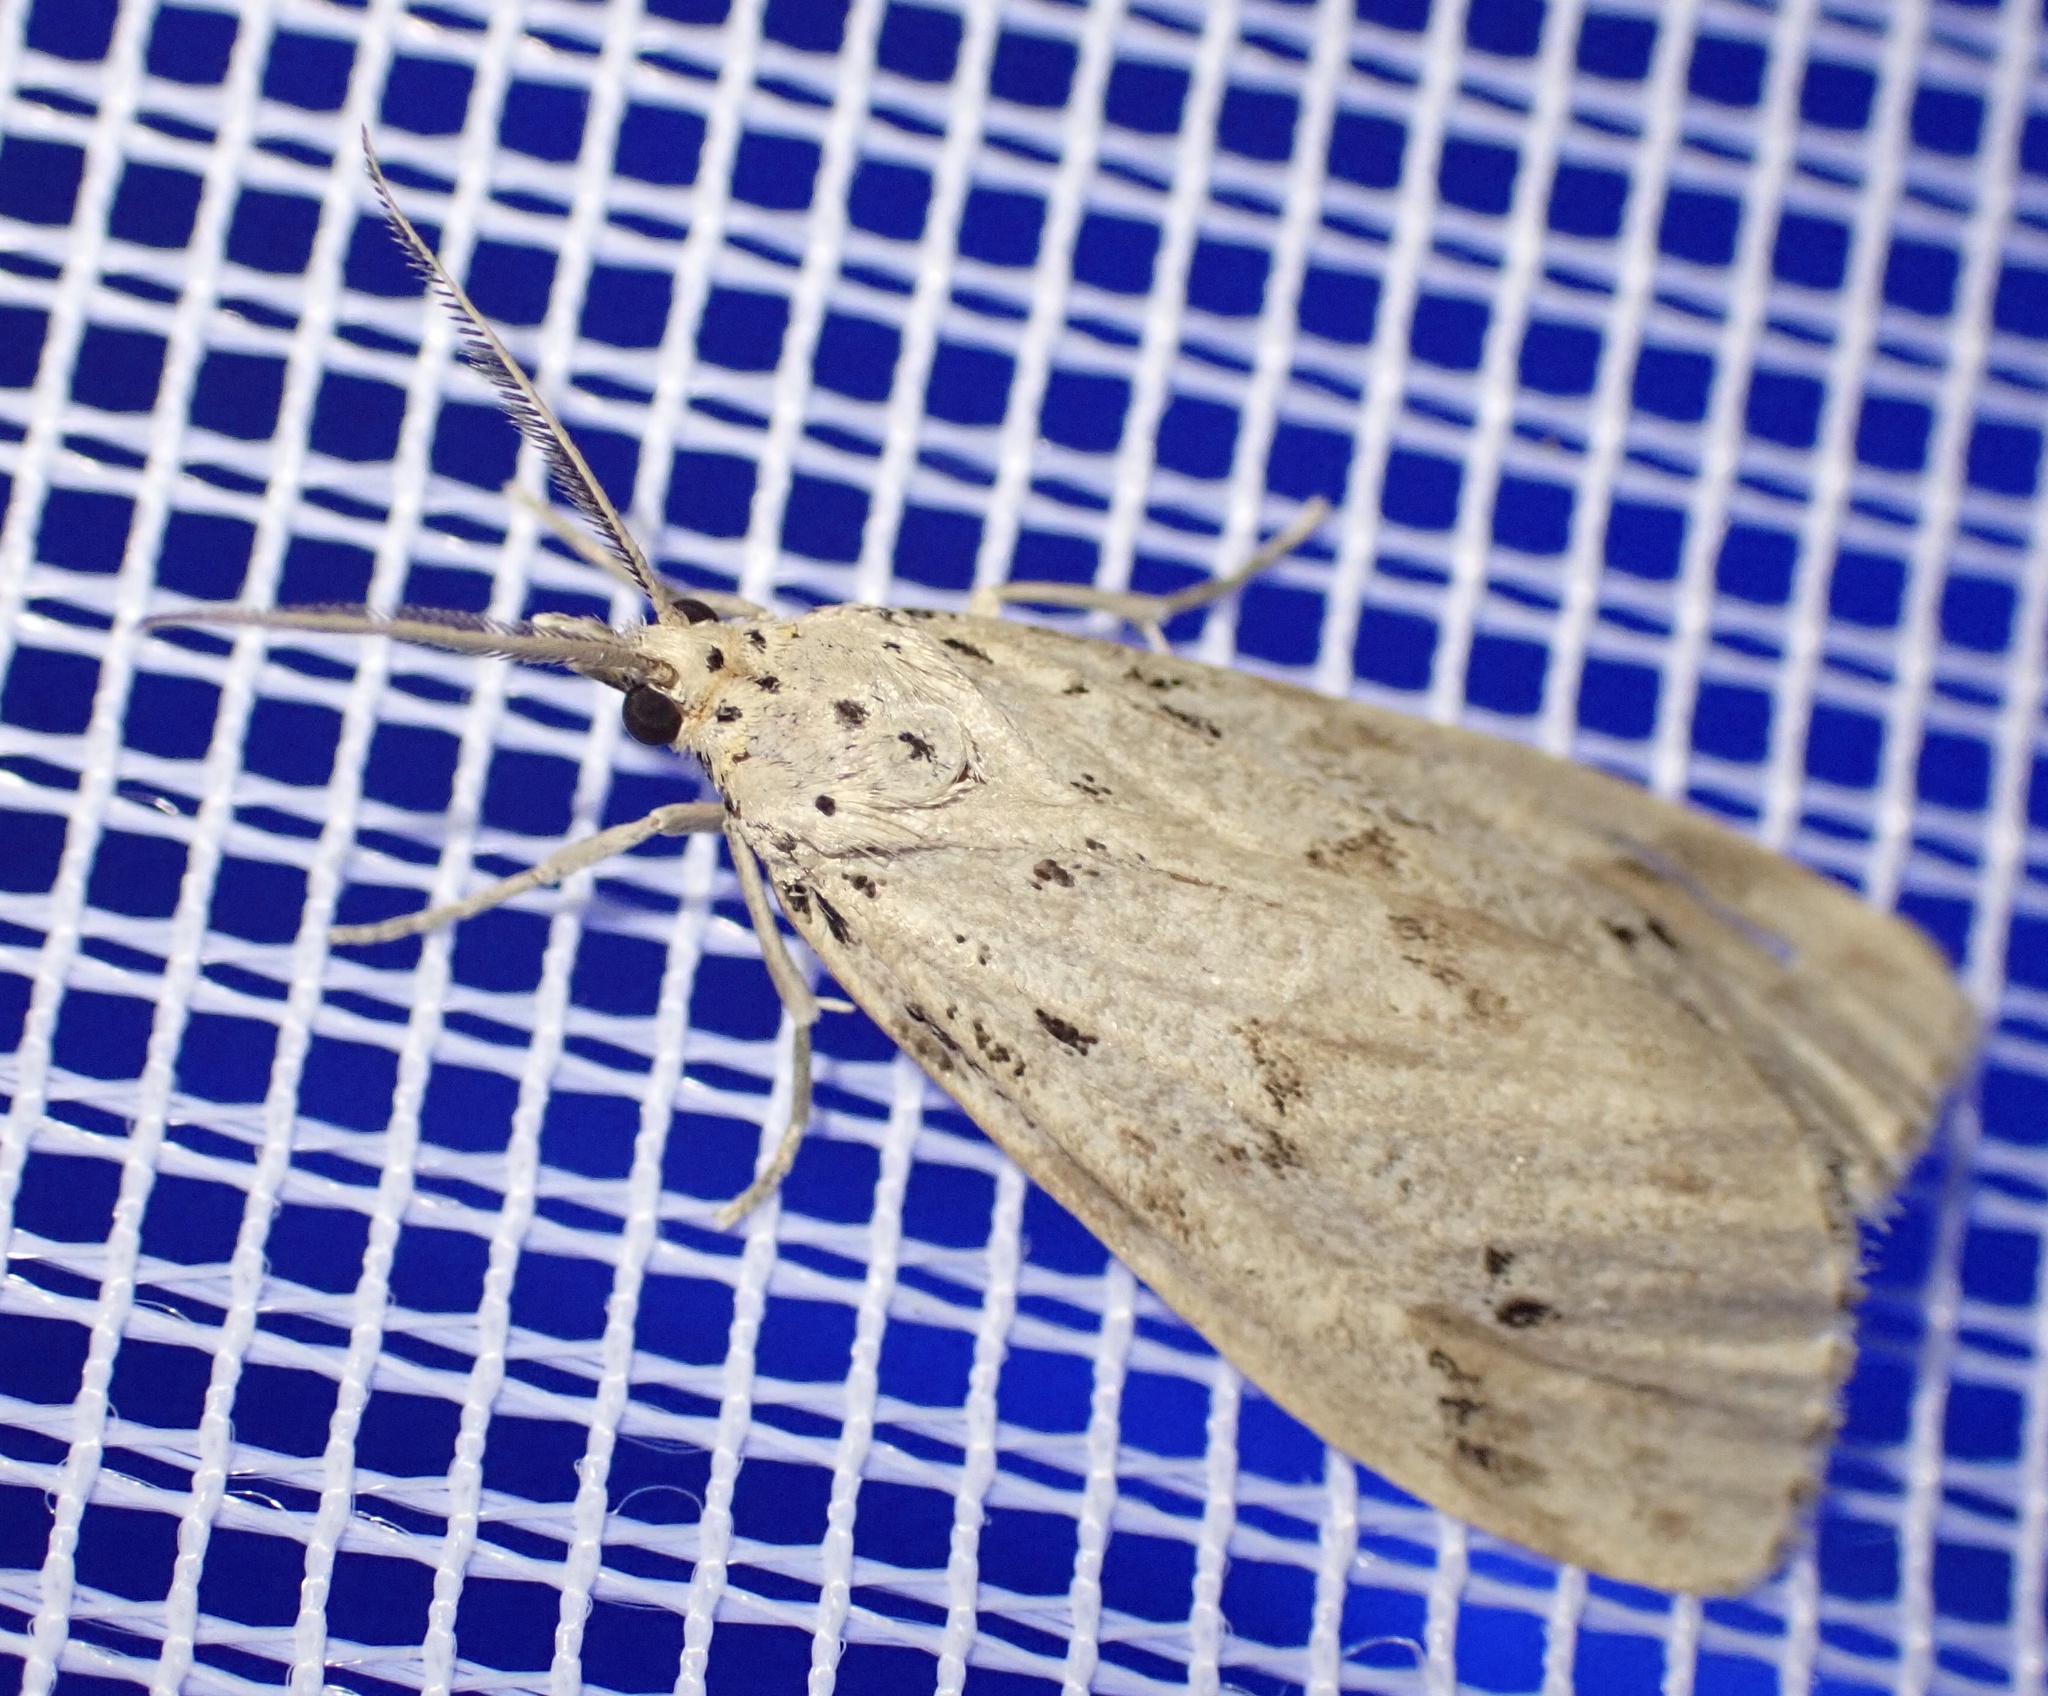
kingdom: Animalia
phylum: Arthropoda
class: Insecta
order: Lepidoptera
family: Erebidae
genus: Galtara
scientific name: Galtara rostrata
